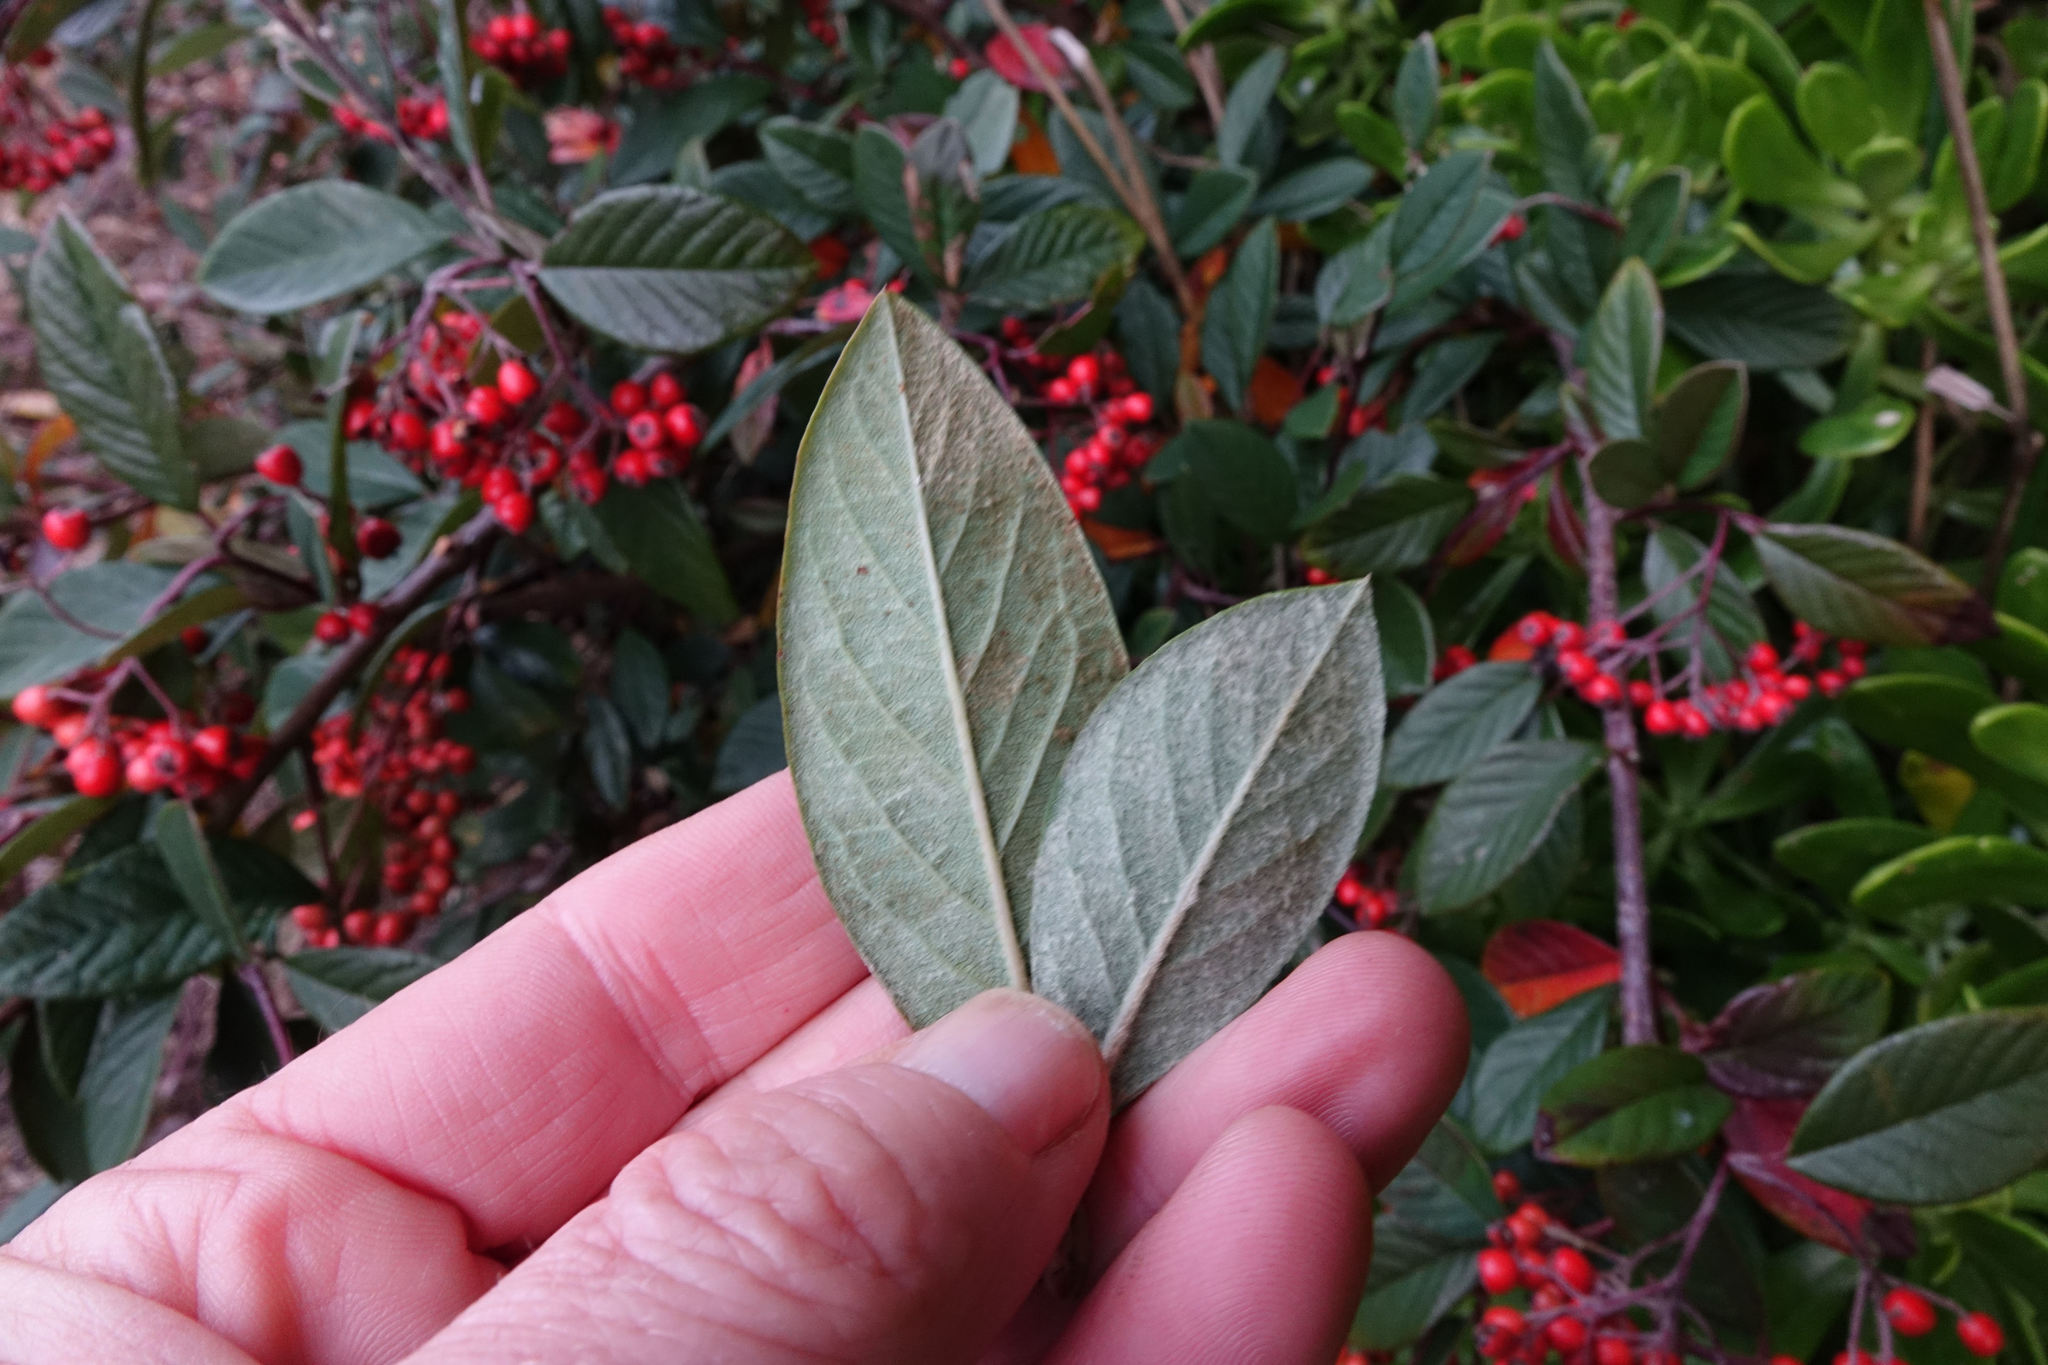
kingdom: Plantae
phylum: Tracheophyta
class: Magnoliopsida
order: Rosales
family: Rosaceae
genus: Cotoneaster
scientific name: Cotoneaster coriaceus
